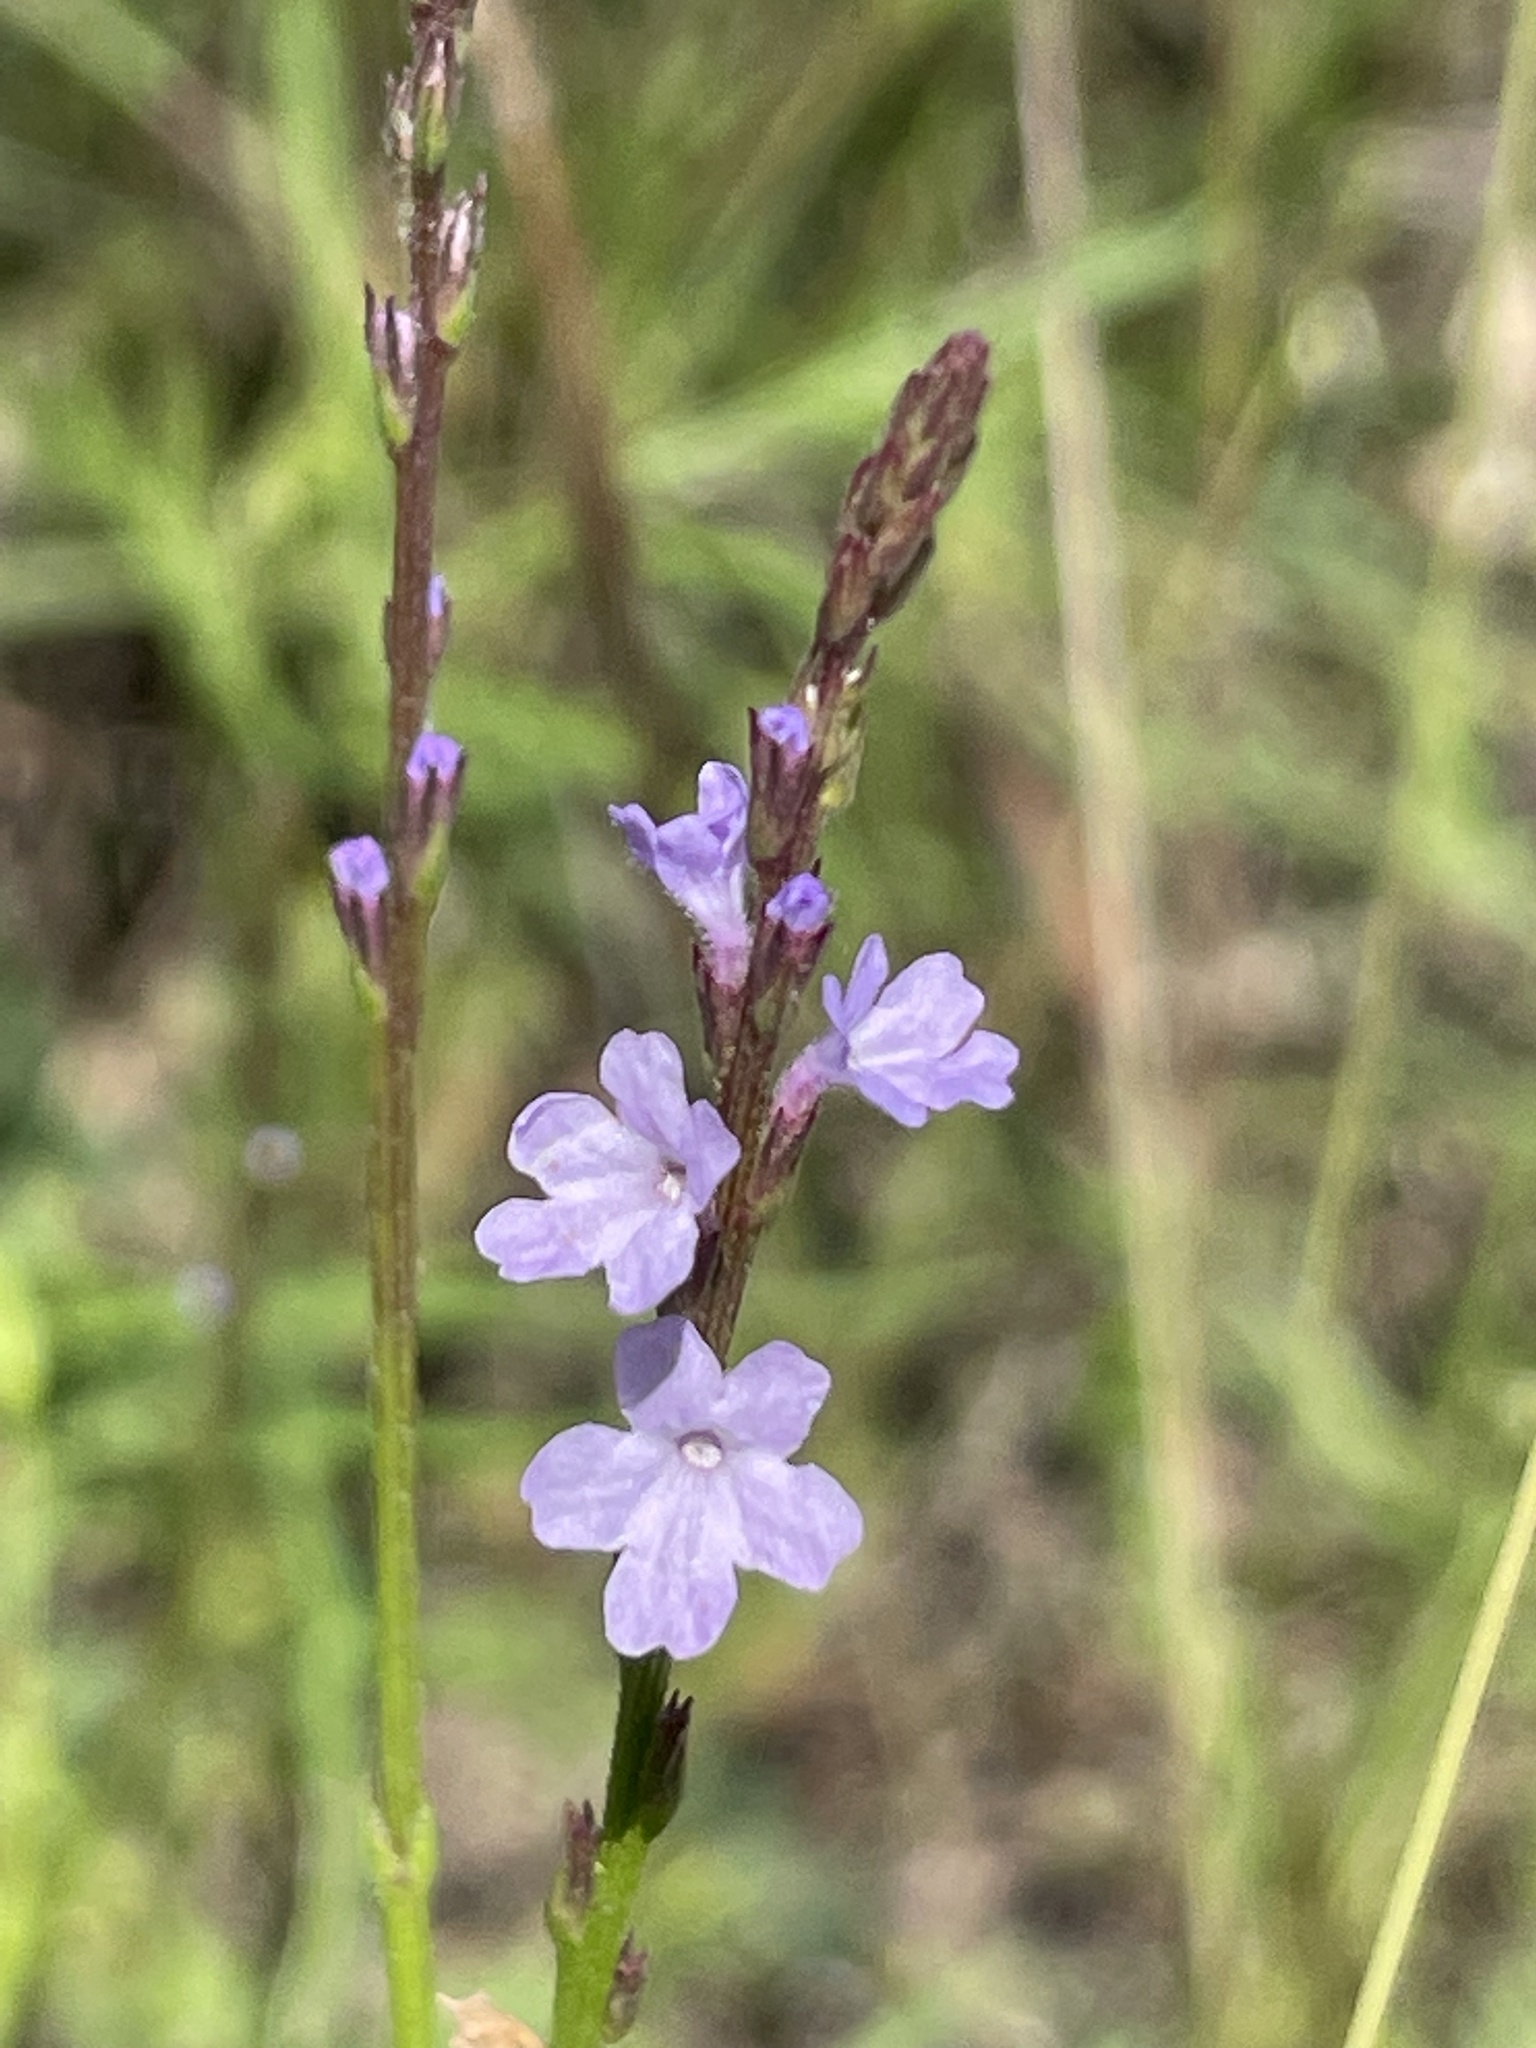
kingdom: Plantae
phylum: Tracheophyta
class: Magnoliopsida
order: Lamiales
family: Verbenaceae
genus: Verbena
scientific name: Verbena halei
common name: Texas vervain
